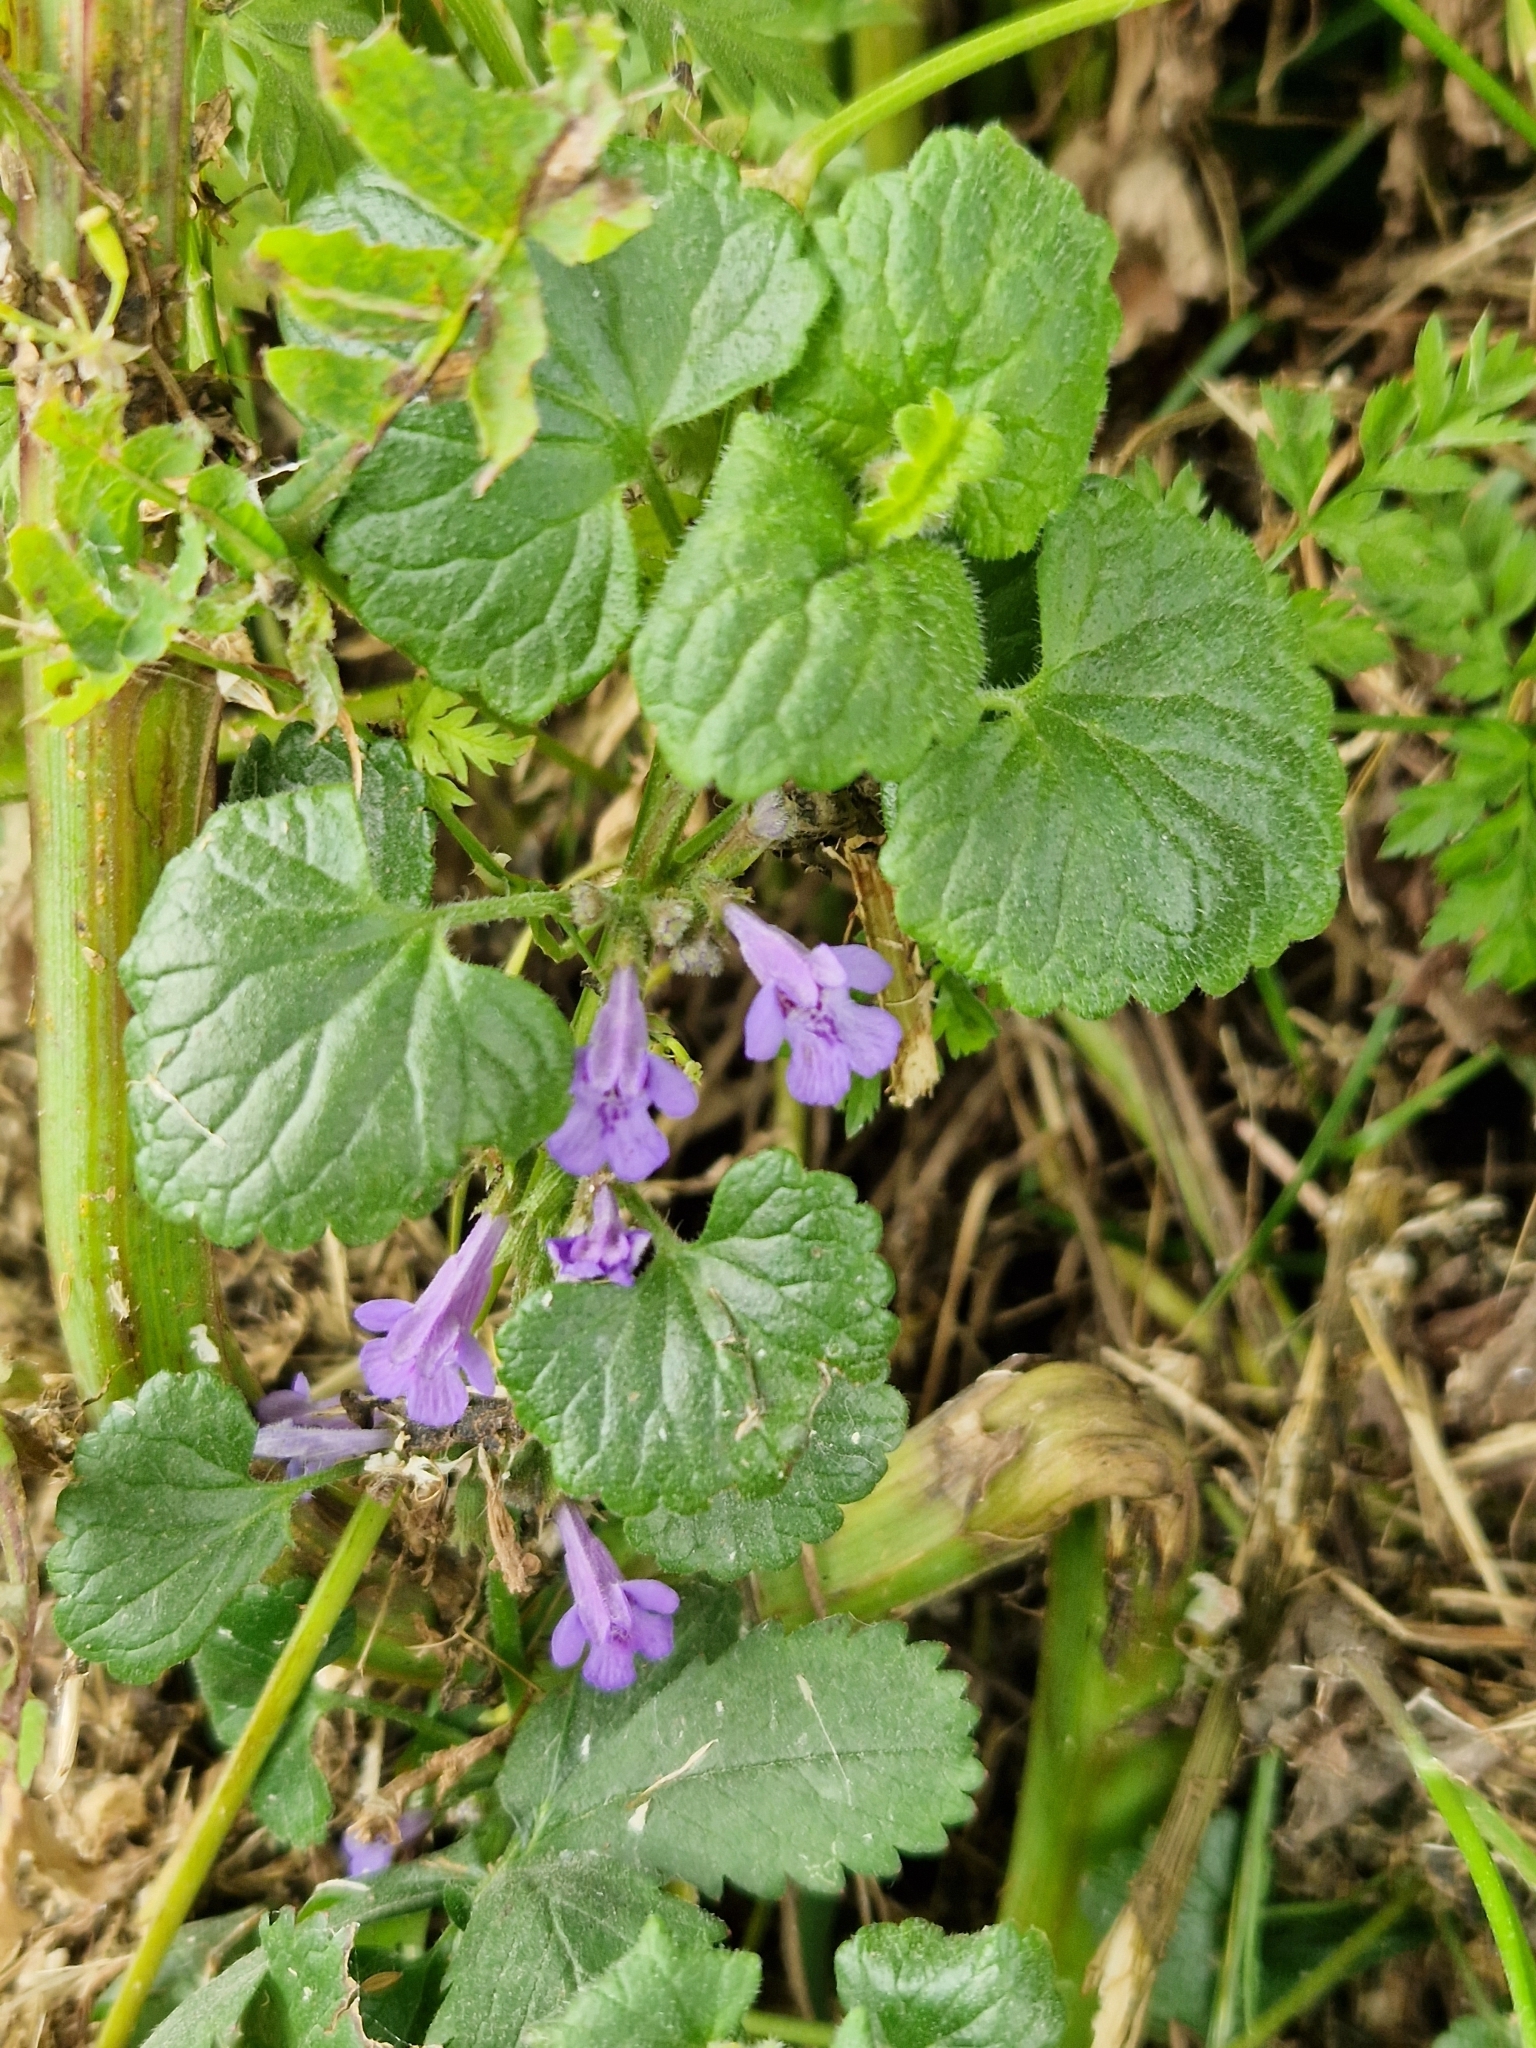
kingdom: Plantae
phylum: Tracheophyta
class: Magnoliopsida
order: Lamiales
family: Lamiaceae
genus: Glechoma
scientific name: Glechoma hederacea
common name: Ground ivy
